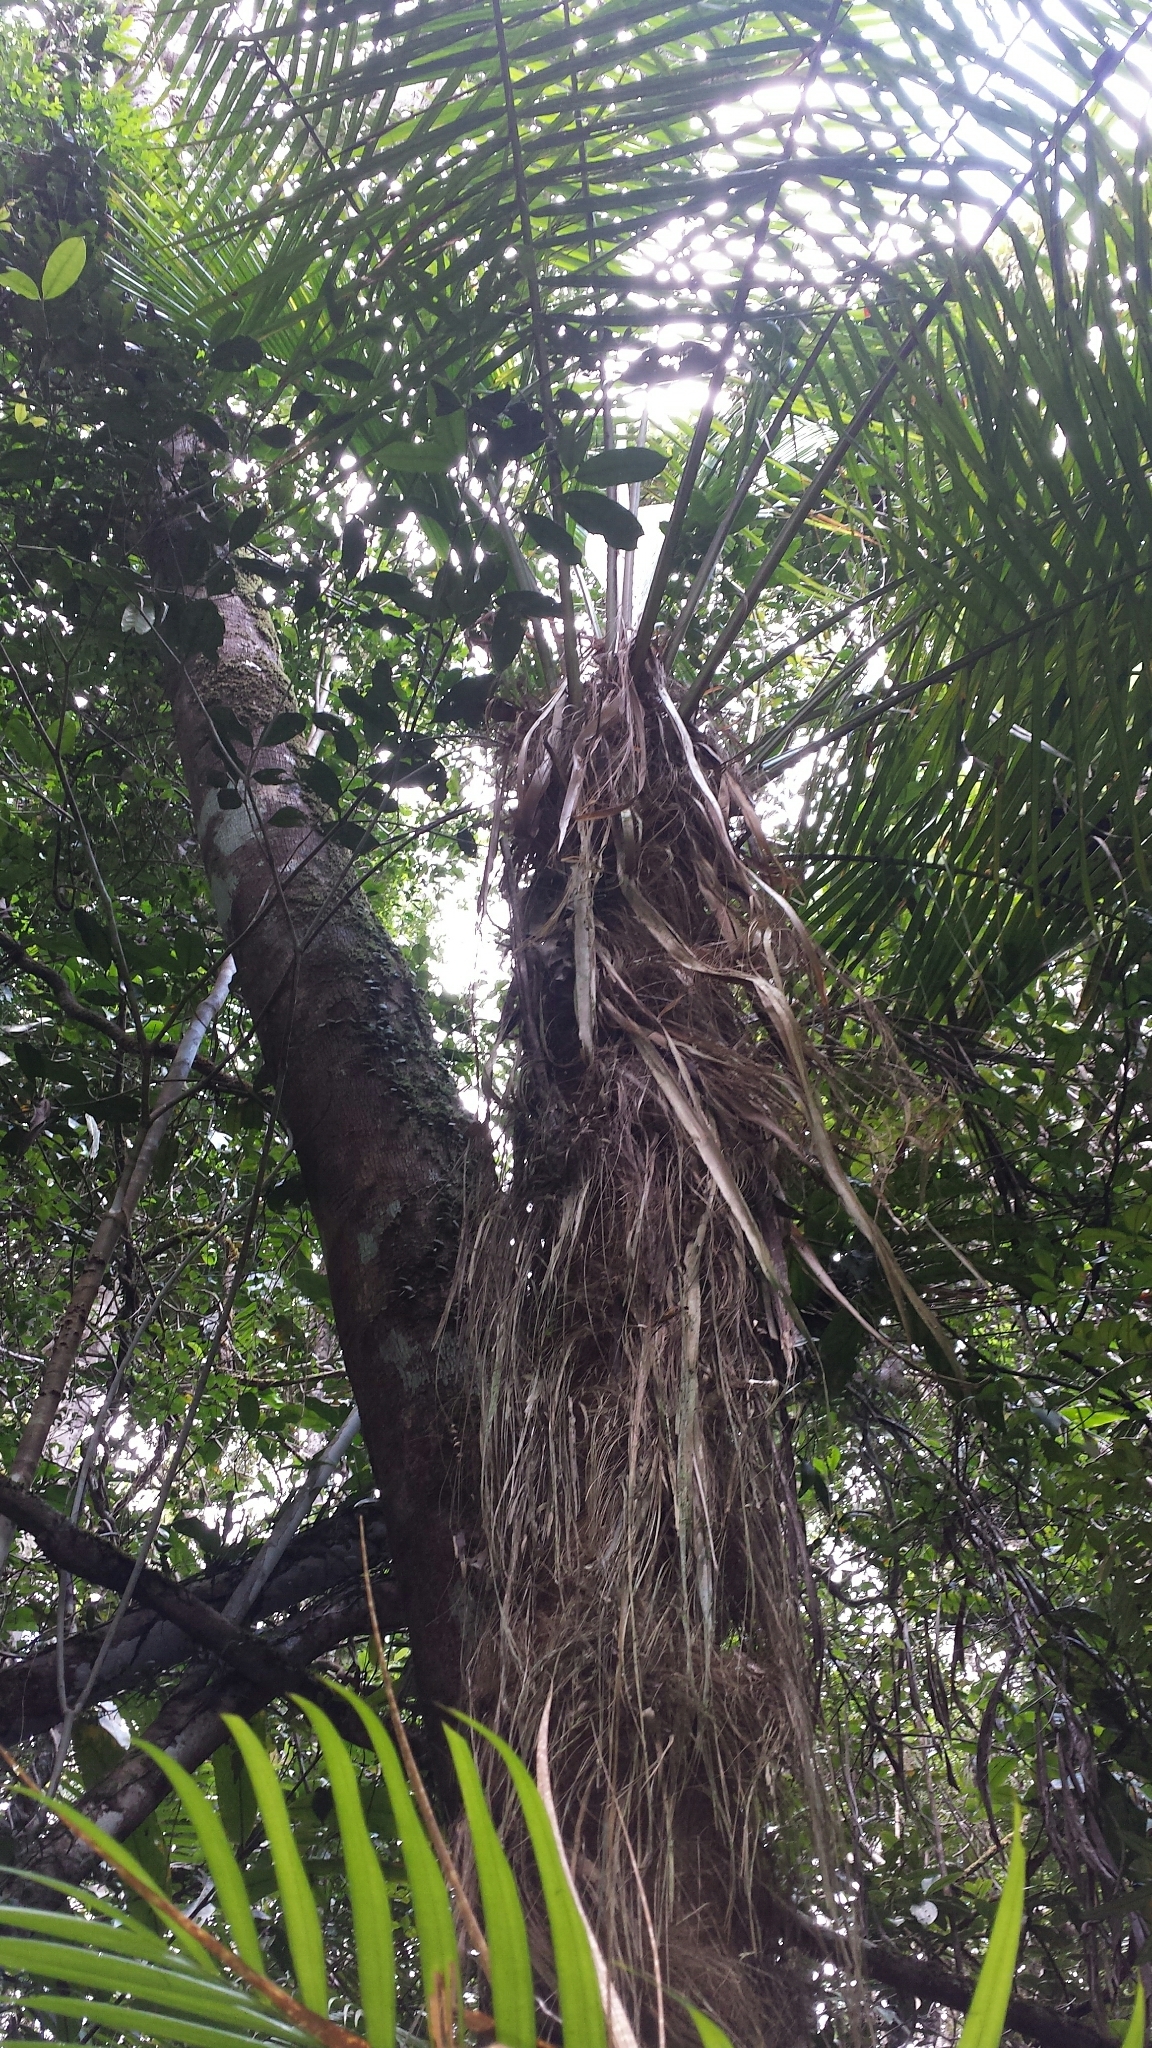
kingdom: Plantae
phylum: Tracheophyta
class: Liliopsida
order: Arecales
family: Arecaceae
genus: Dypsis
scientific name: Dypsis fibrosa
